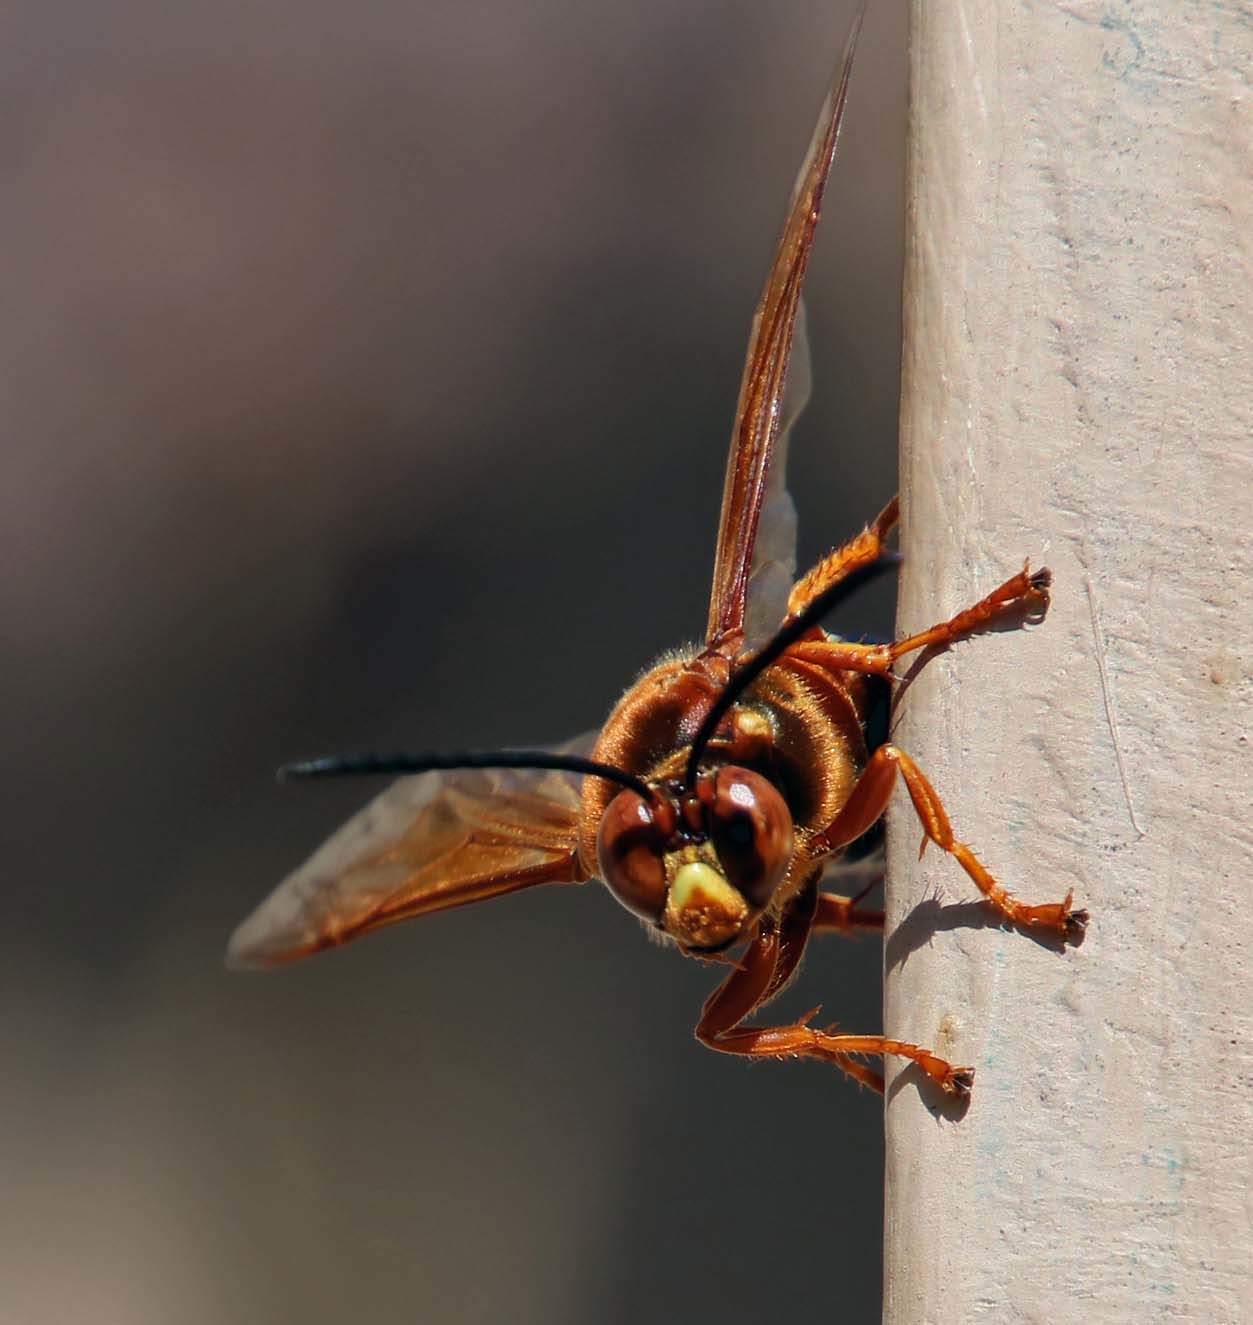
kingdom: Animalia
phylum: Arthropoda
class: Insecta
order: Hymenoptera
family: Crabronidae
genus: Sphecius
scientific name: Sphecius speciosus
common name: Cicada killer
